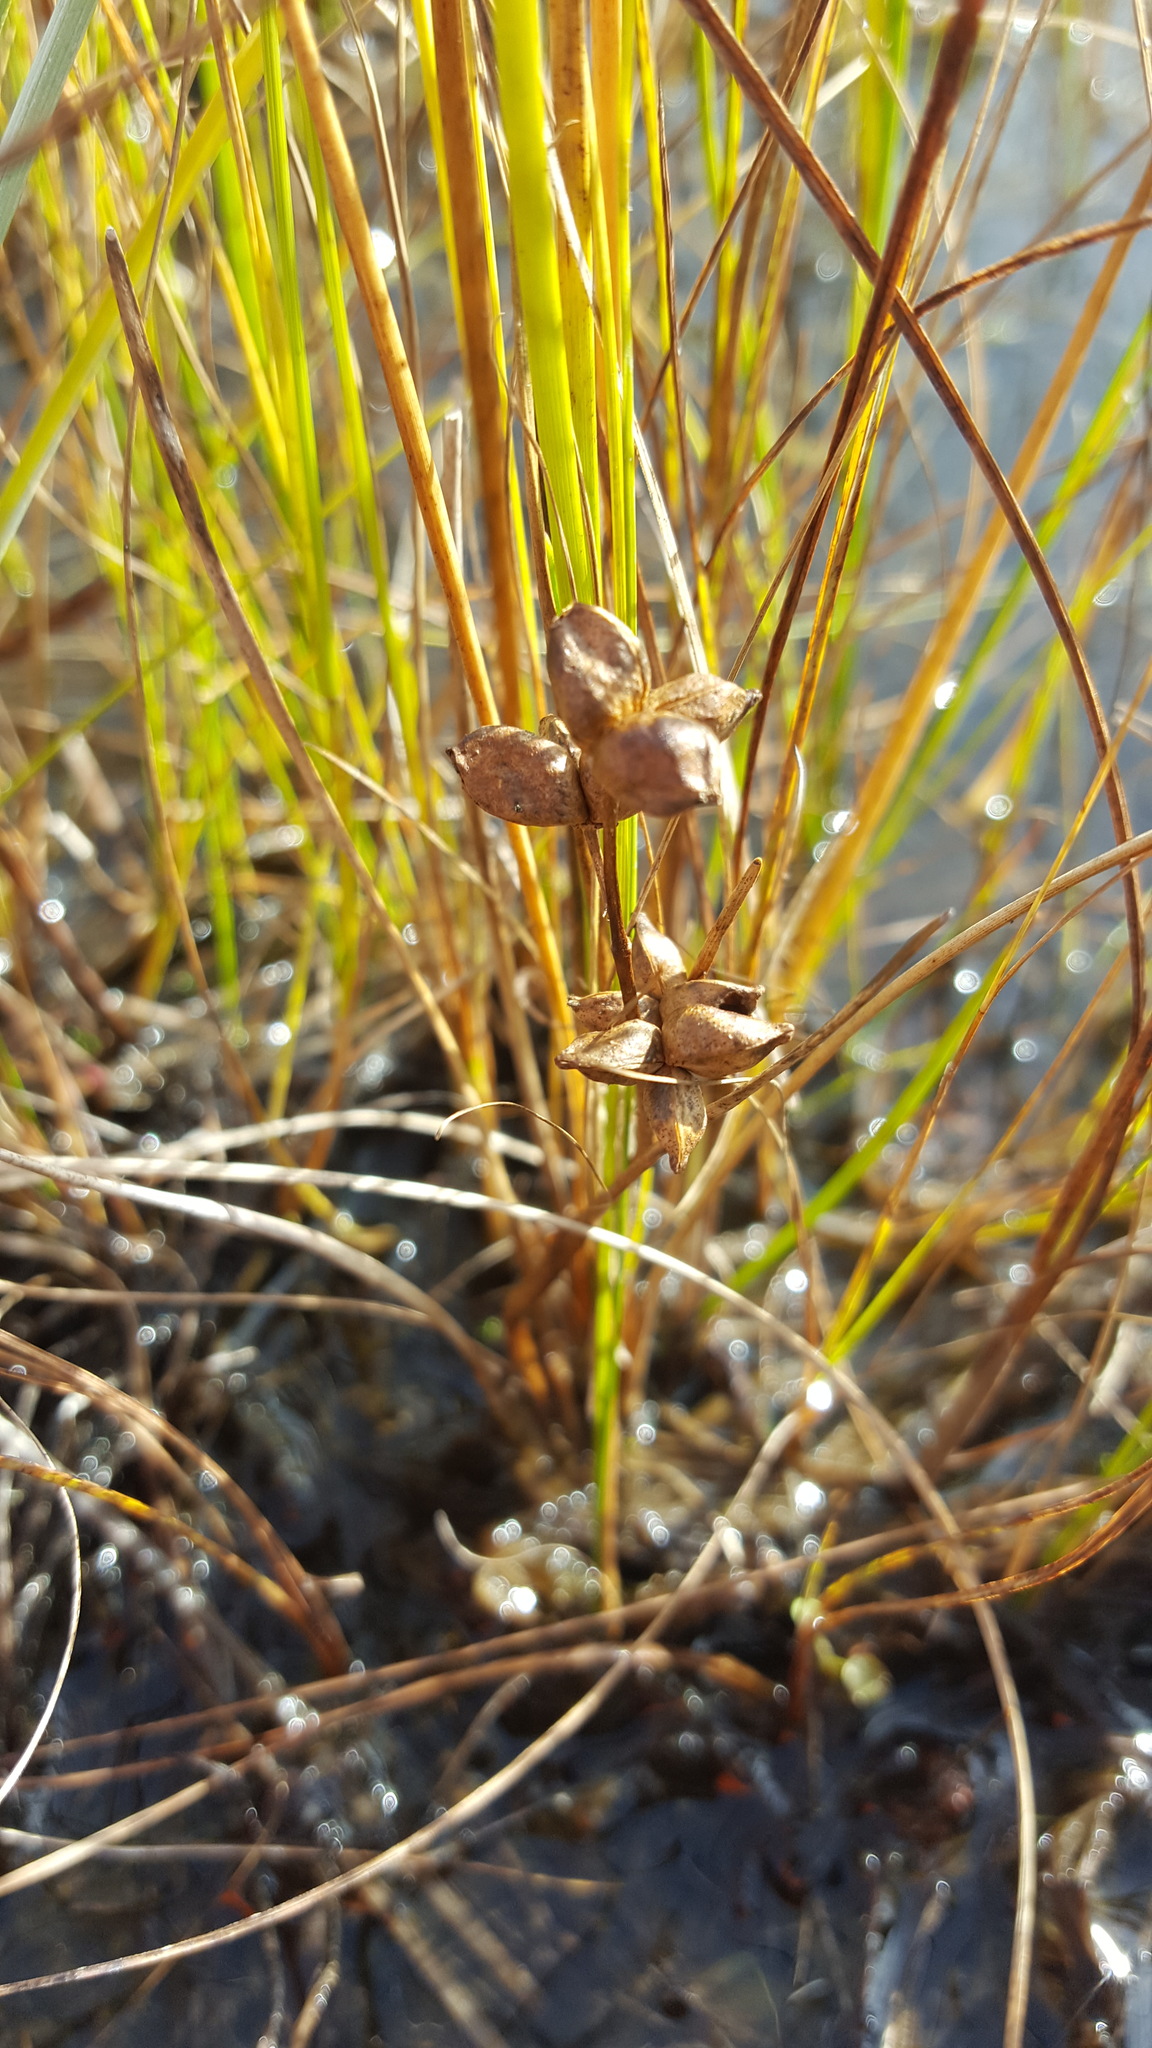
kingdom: Plantae
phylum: Tracheophyta
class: Liliopsida
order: Alismatales
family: Scheuchzeriaceae
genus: Scheuchzeria
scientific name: Scheuchzeria palustris
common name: Rannoch-rush
